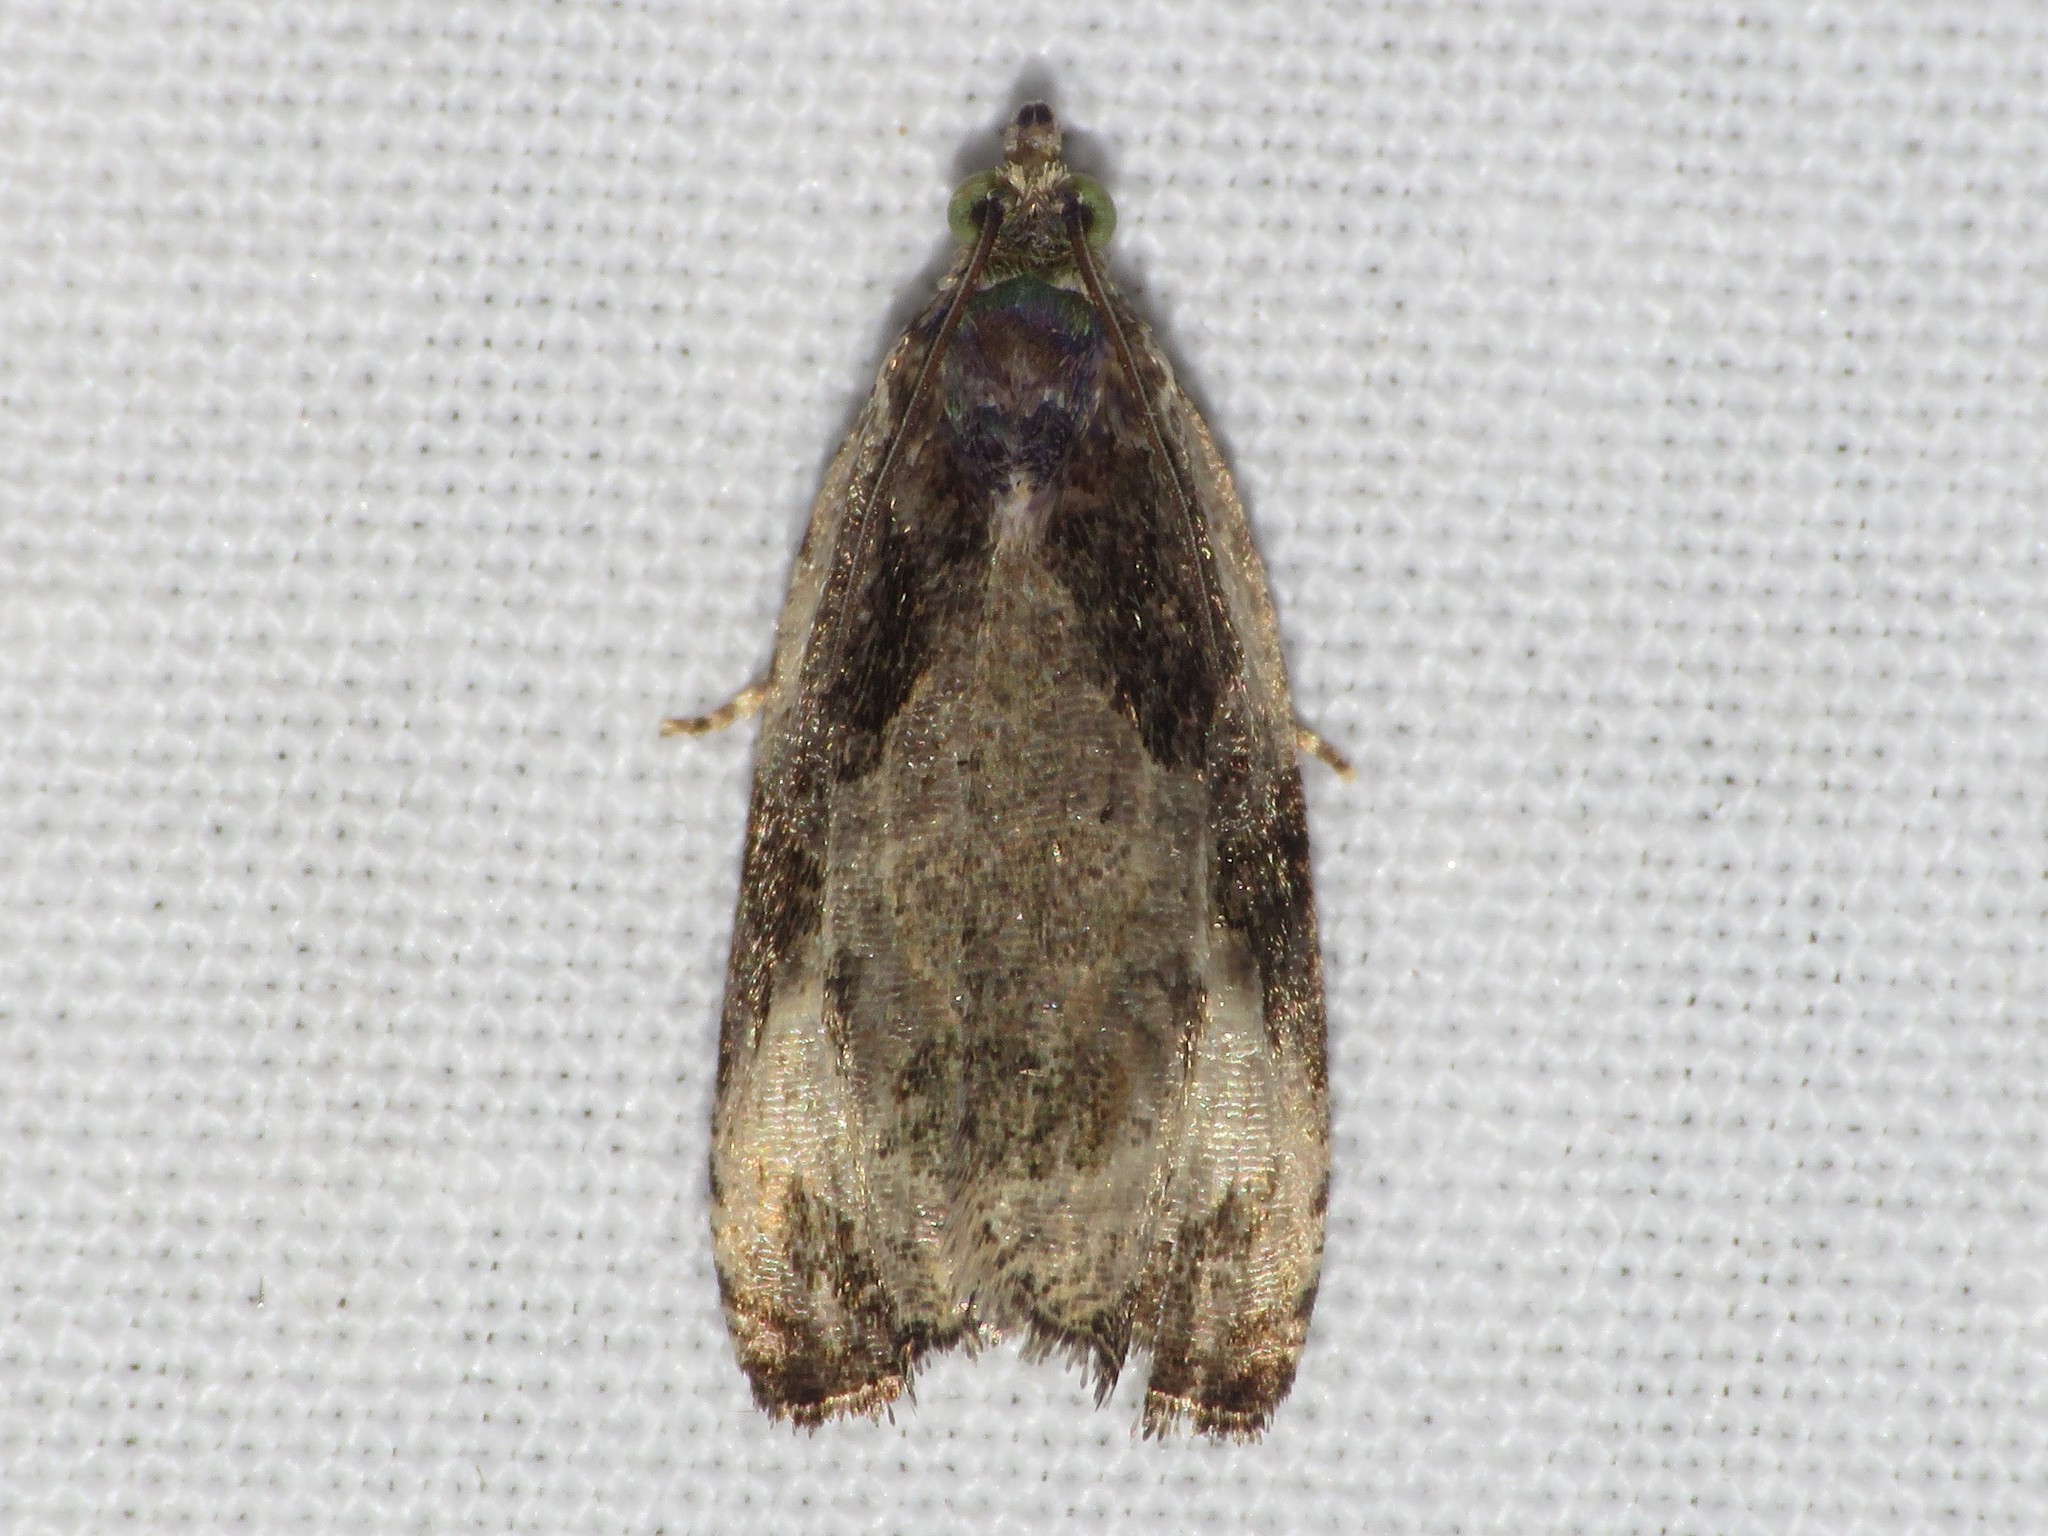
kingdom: Animalia
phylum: Arthropoda
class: Insecta
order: Lepidoptera
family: Tortricidae
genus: Olethreutes
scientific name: Olethreutes connectum
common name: Bunchberry leaffolder moth
